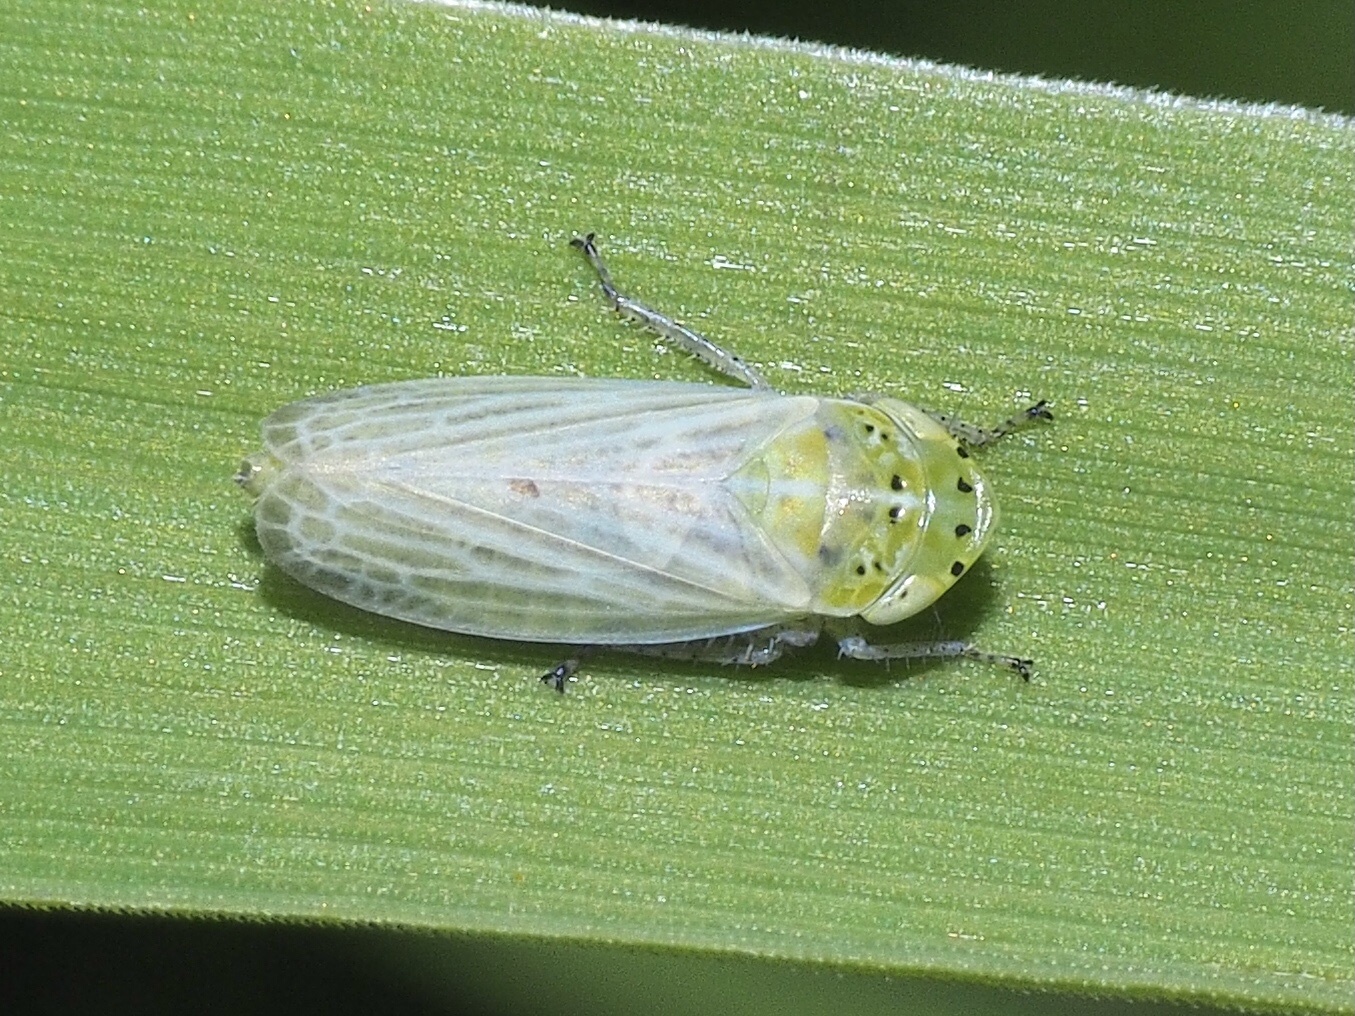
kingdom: Animalia
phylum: Arthropoda
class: Insecta
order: Hemiptera
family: Cicadellidae
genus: Graphocraerus
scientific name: Graphocraerus ventralis
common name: Leafhopper
